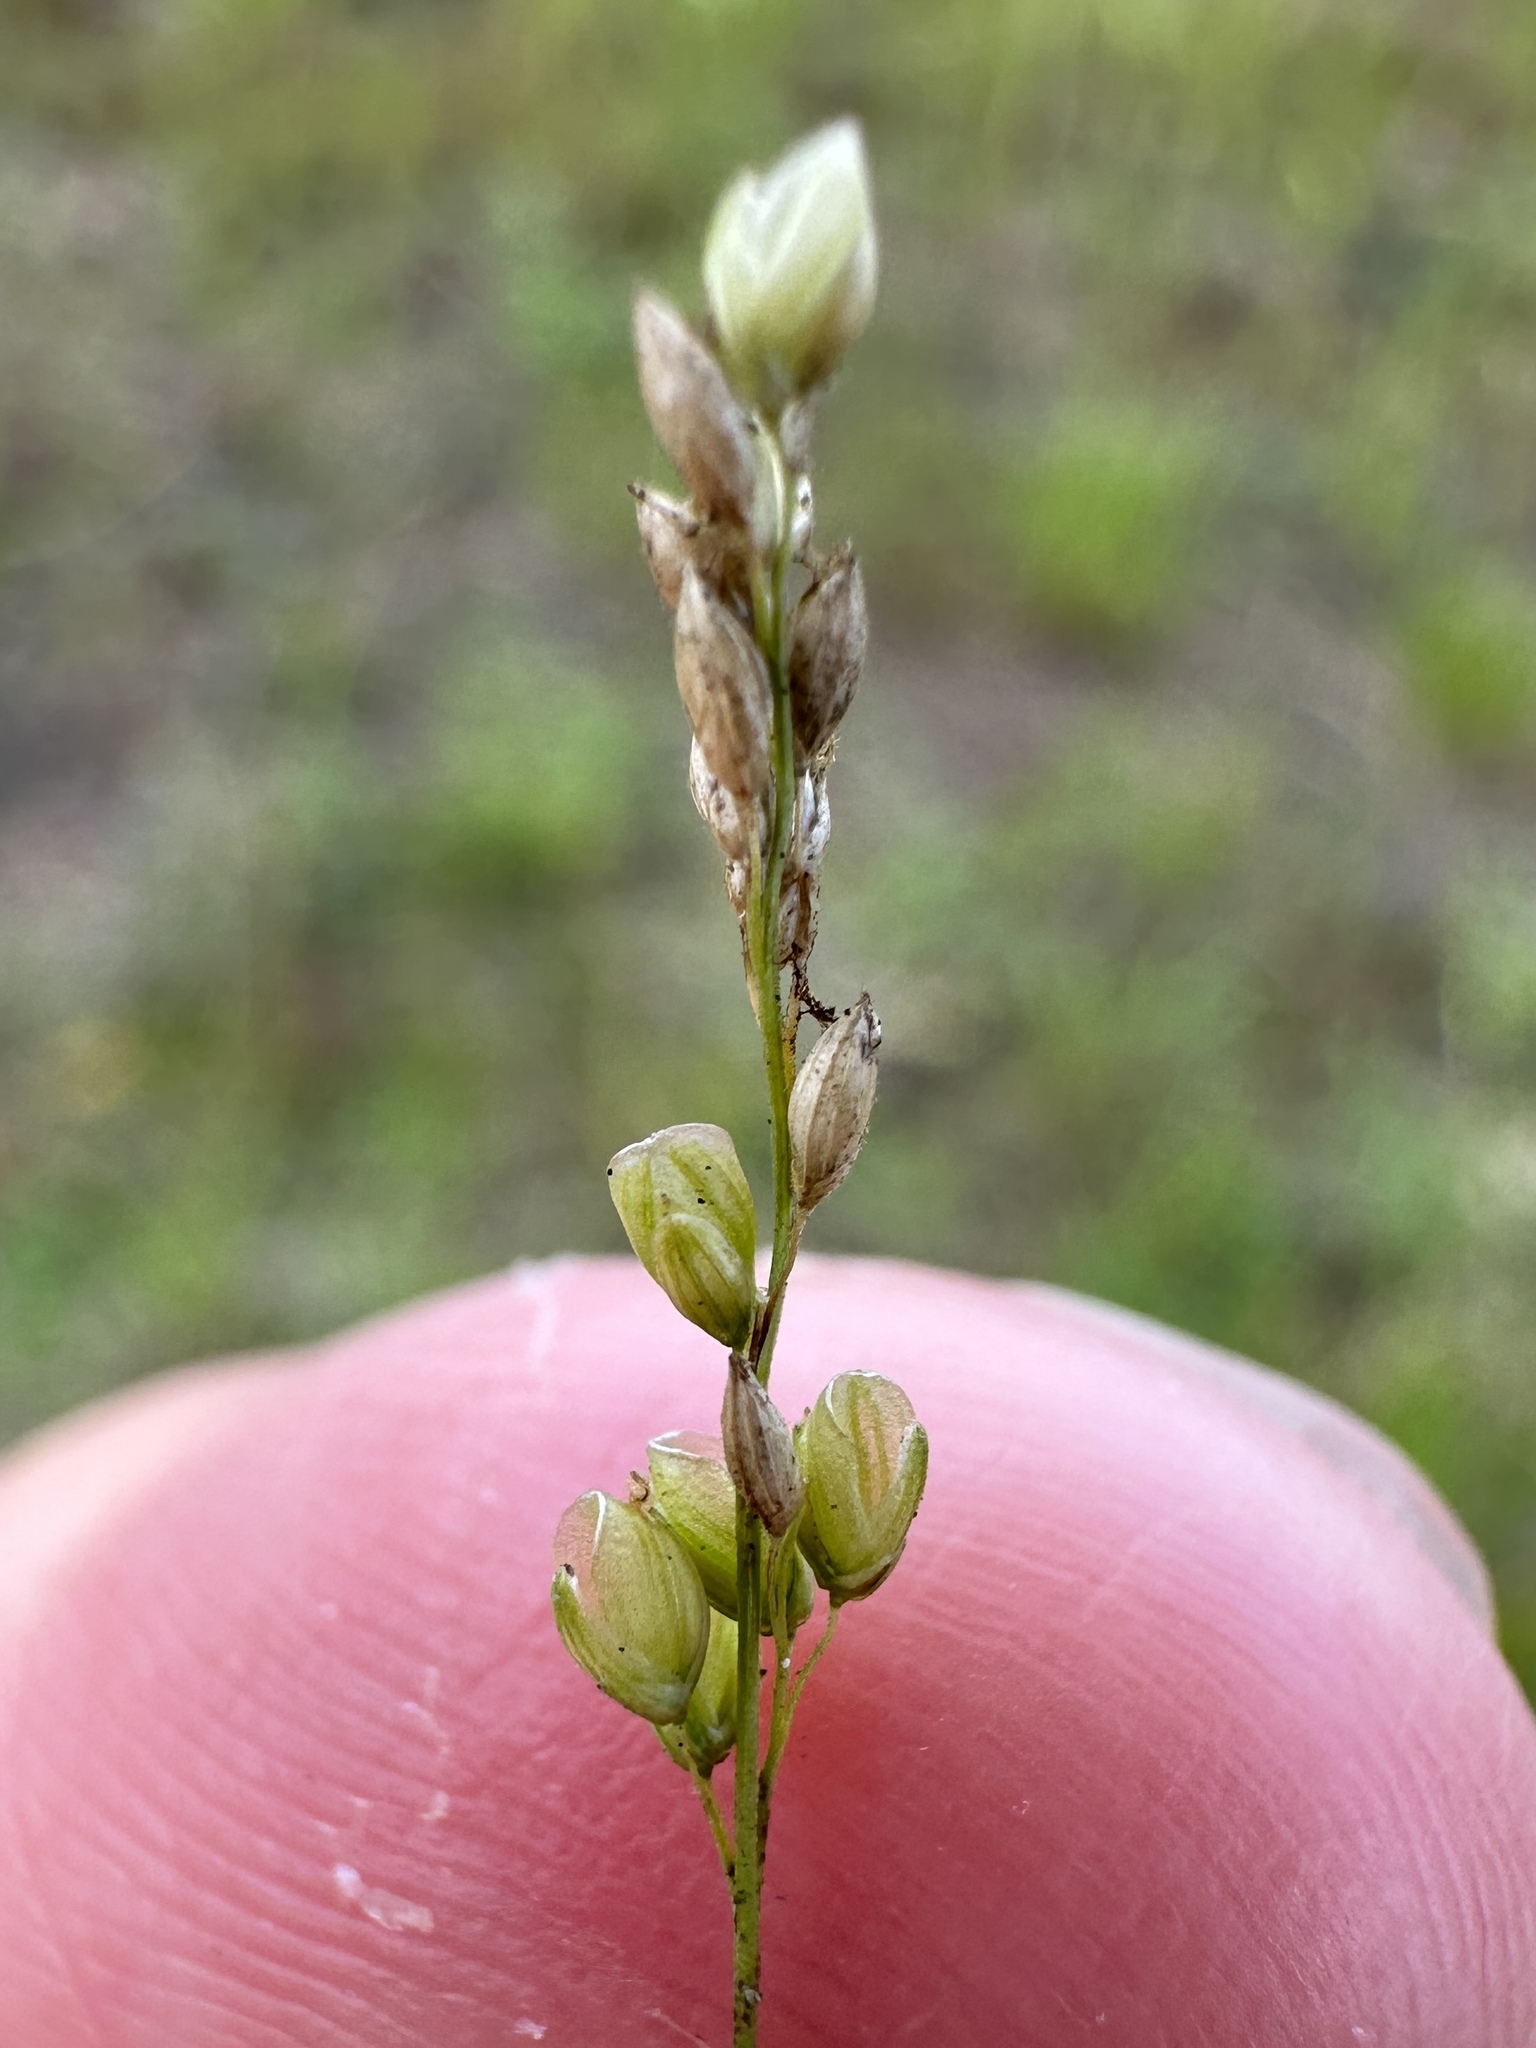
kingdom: Plantae
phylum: Tracheophyta
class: Liliopsida
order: Poales
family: Poaceae
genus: Steinchisma
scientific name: Steinchisma hians
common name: Gaping panic grass
